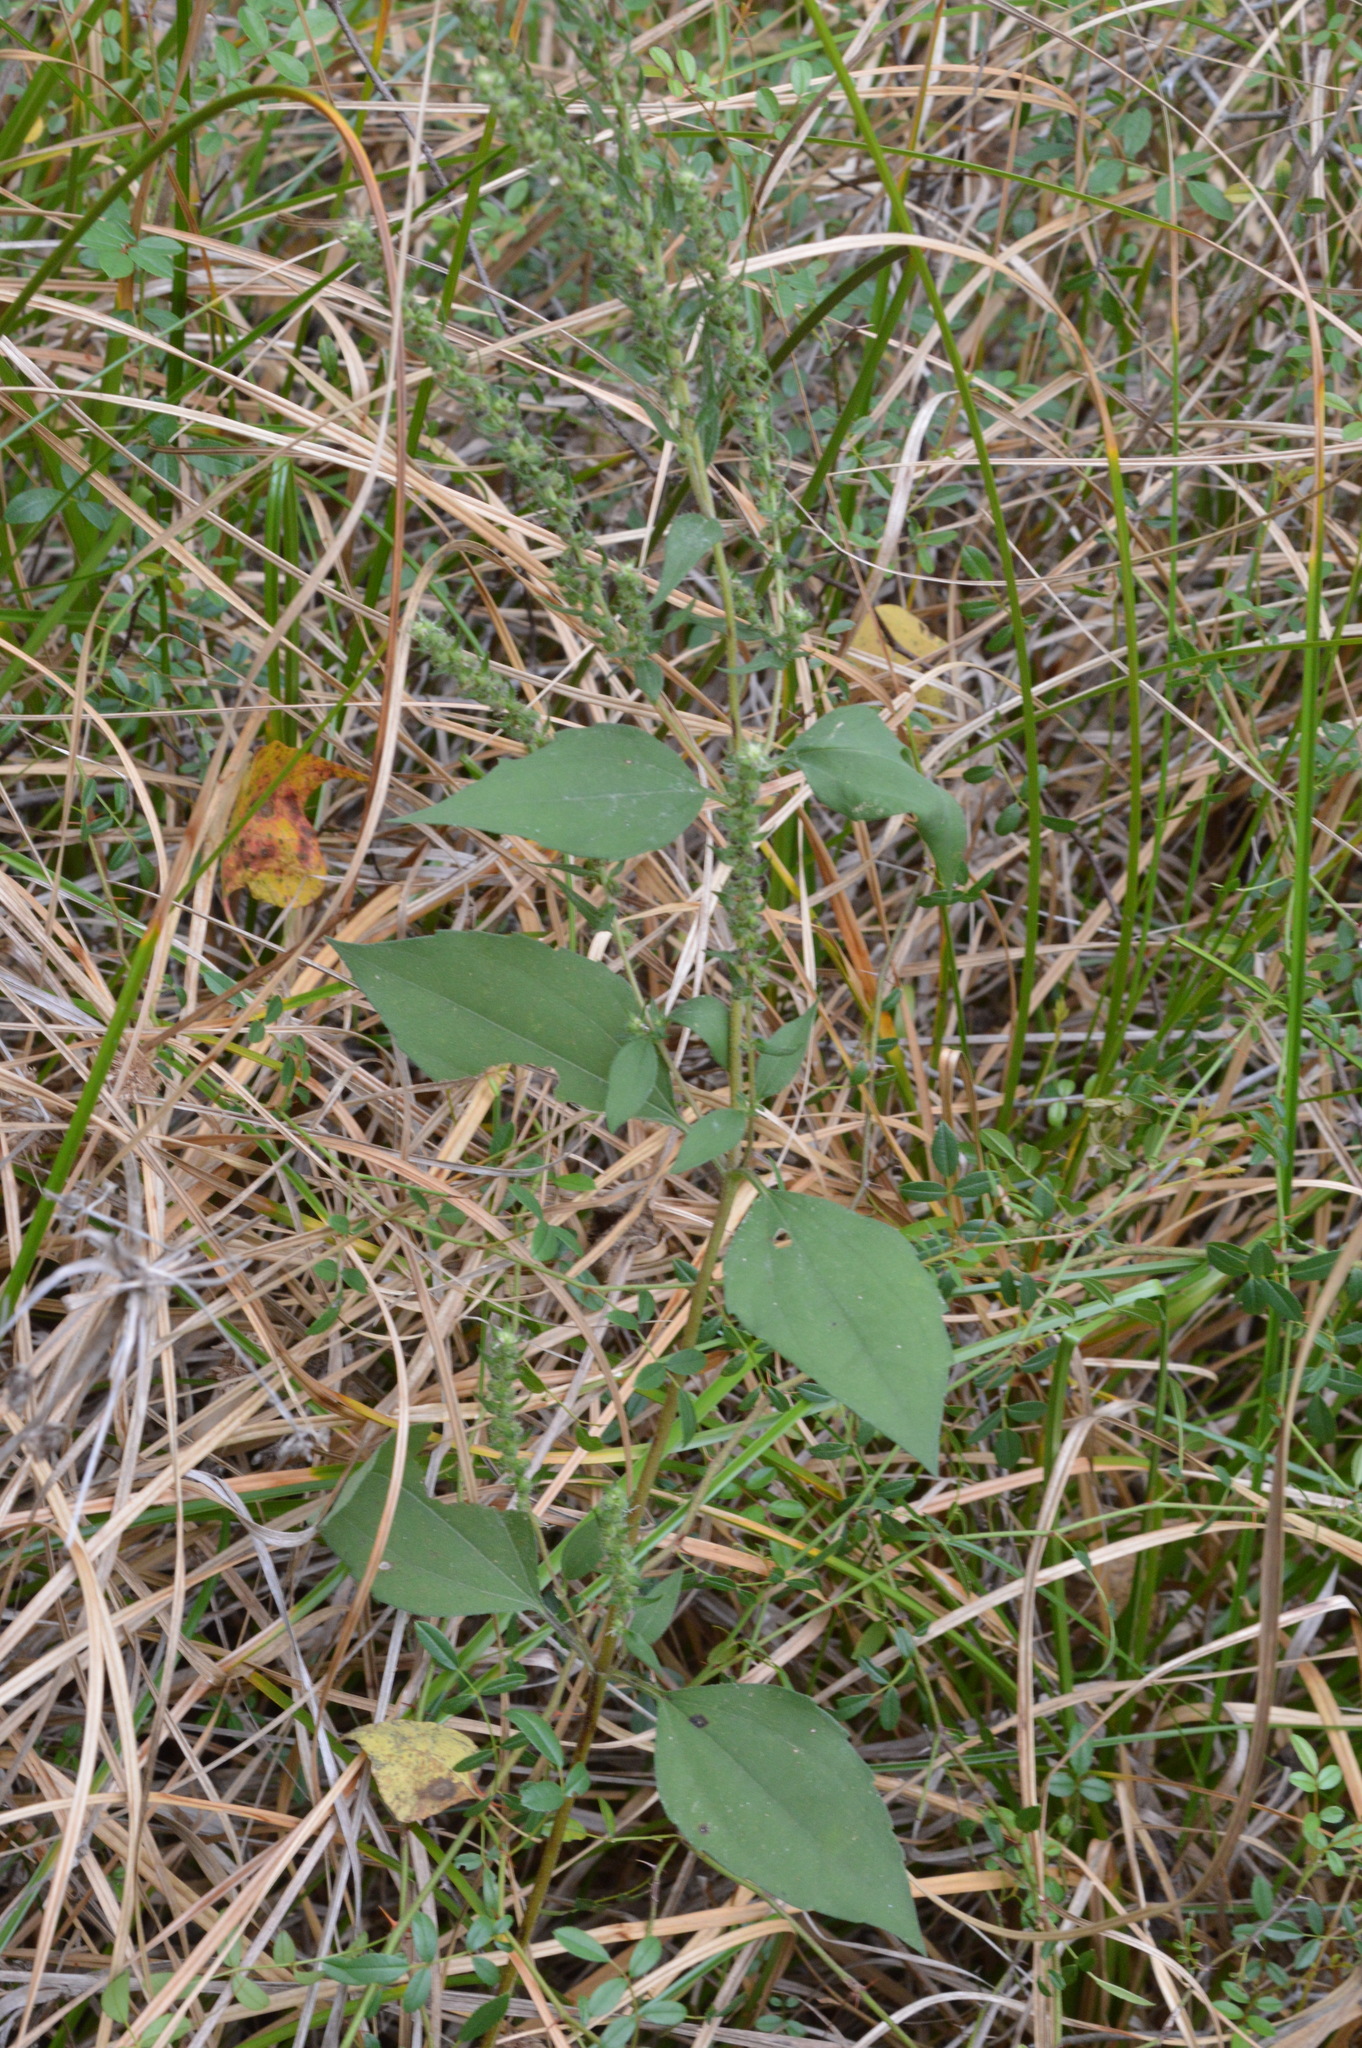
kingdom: Plantae
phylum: Tracheophyta
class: Magnoliopsida
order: Asterales
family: Asteraceae
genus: Iva
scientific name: Iva annua
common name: Marsh-elder
